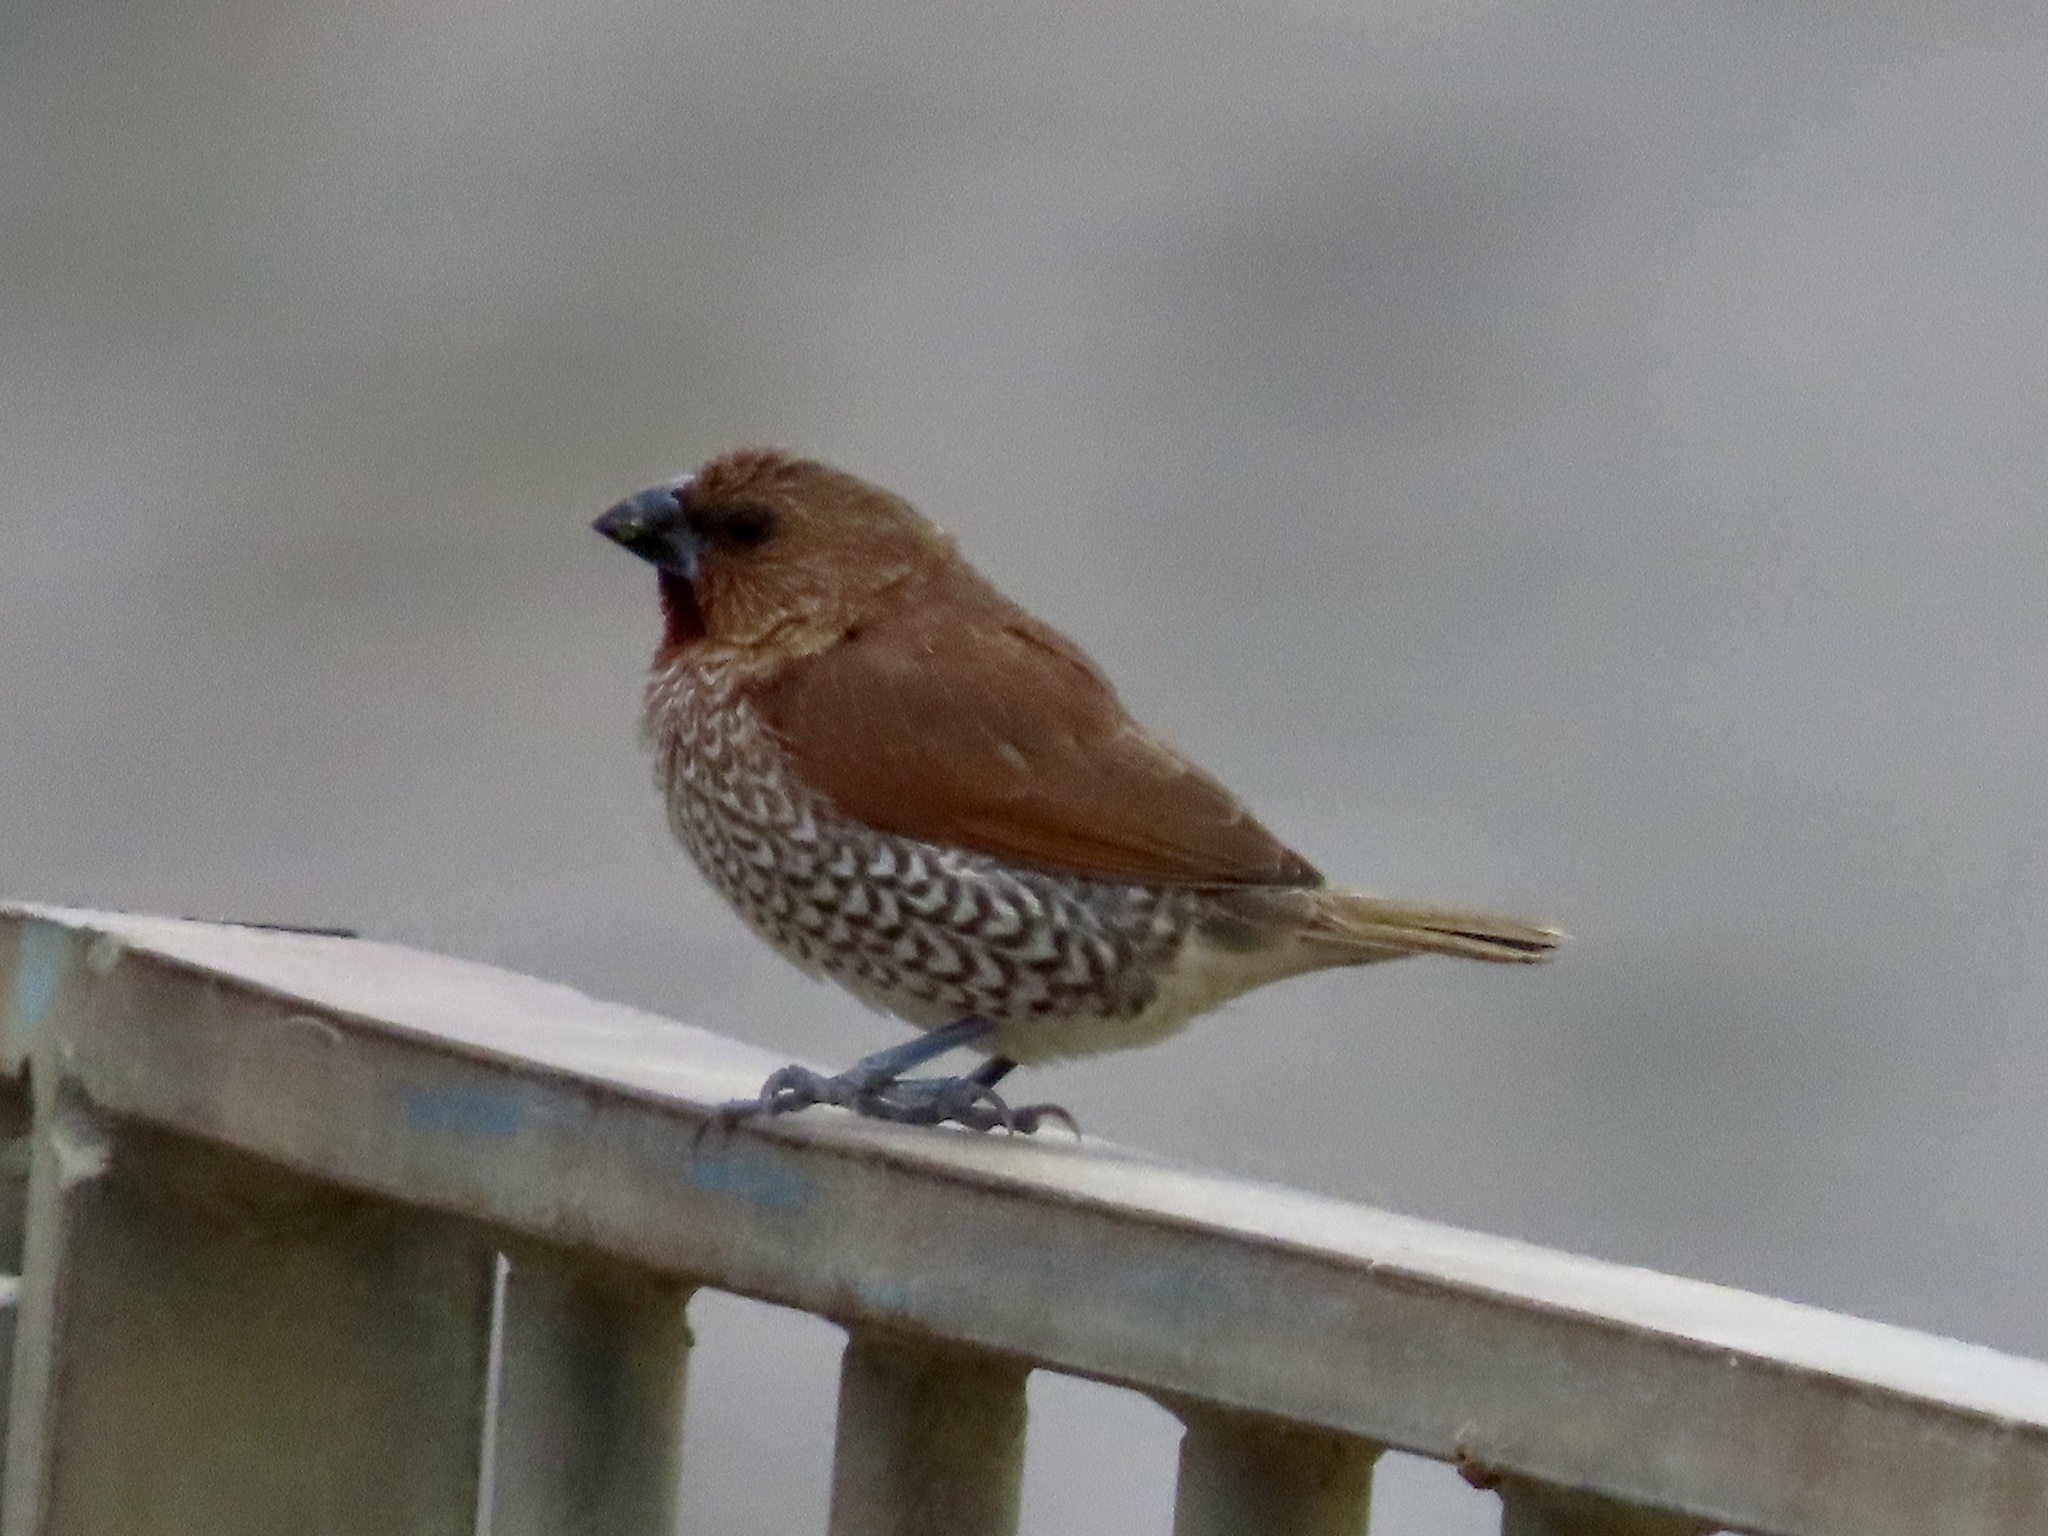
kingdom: Animalia
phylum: Chordata
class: Aves
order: Passeriformes
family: Estrildidae
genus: Lonchura
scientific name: Lonchura punctulata
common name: Scaly-breasted munia
